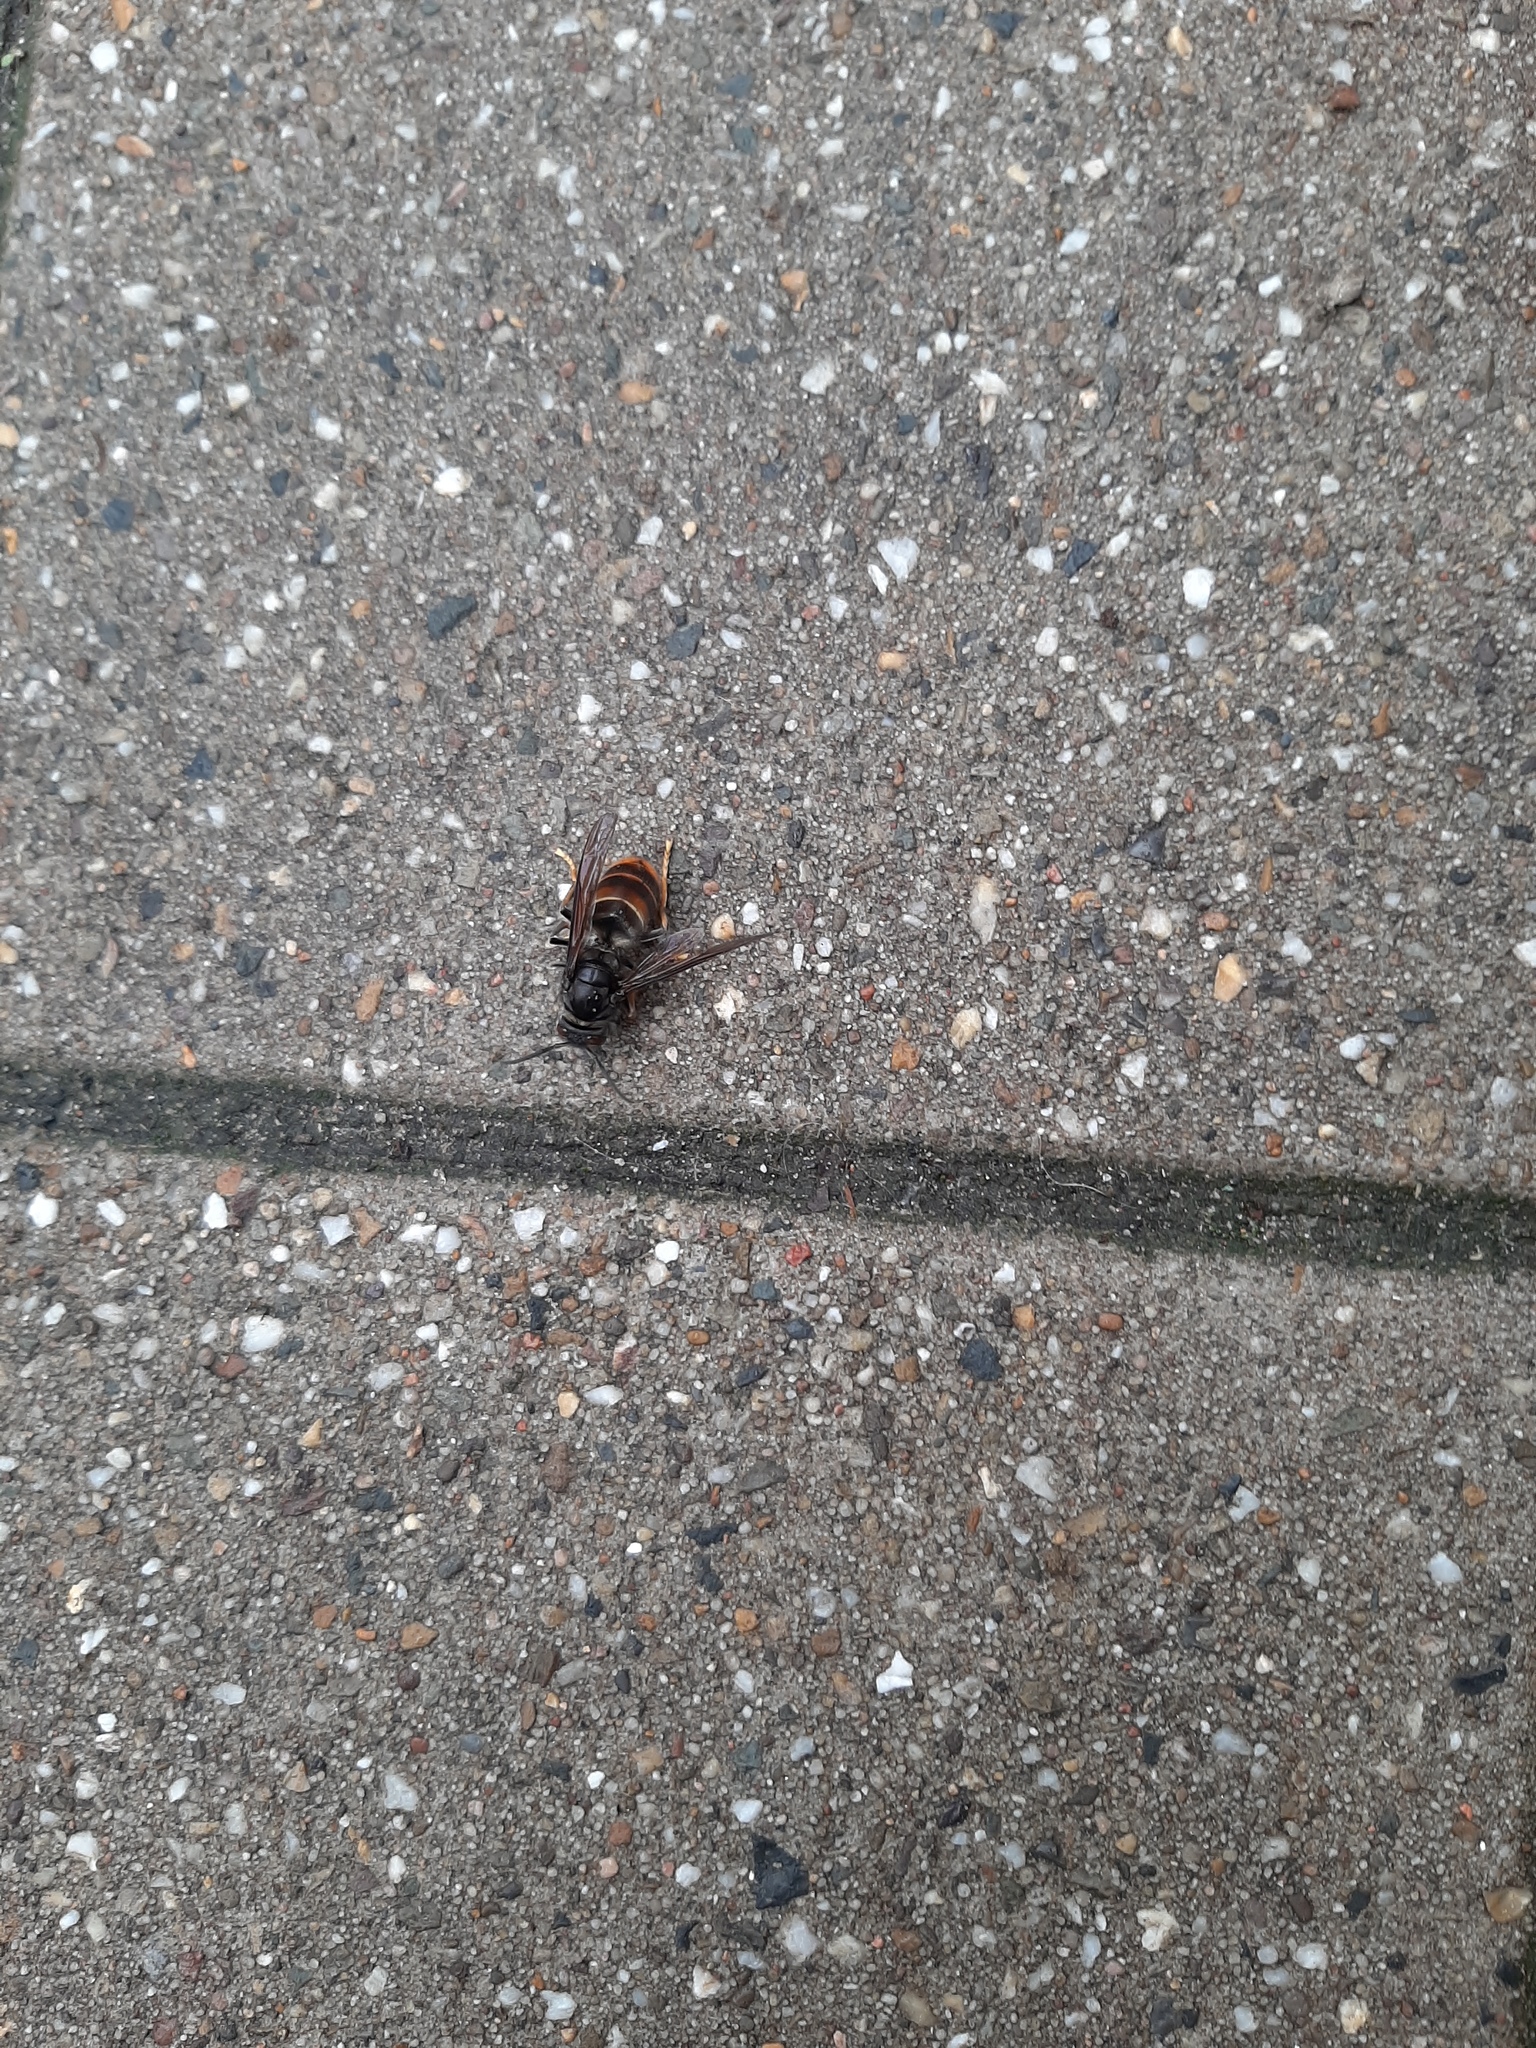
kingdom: Animalia
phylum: Arthropoda
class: Insecta
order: Hymenoptera
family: Vespidae
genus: Vespa
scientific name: Vespa velutina
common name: Asian hornet
